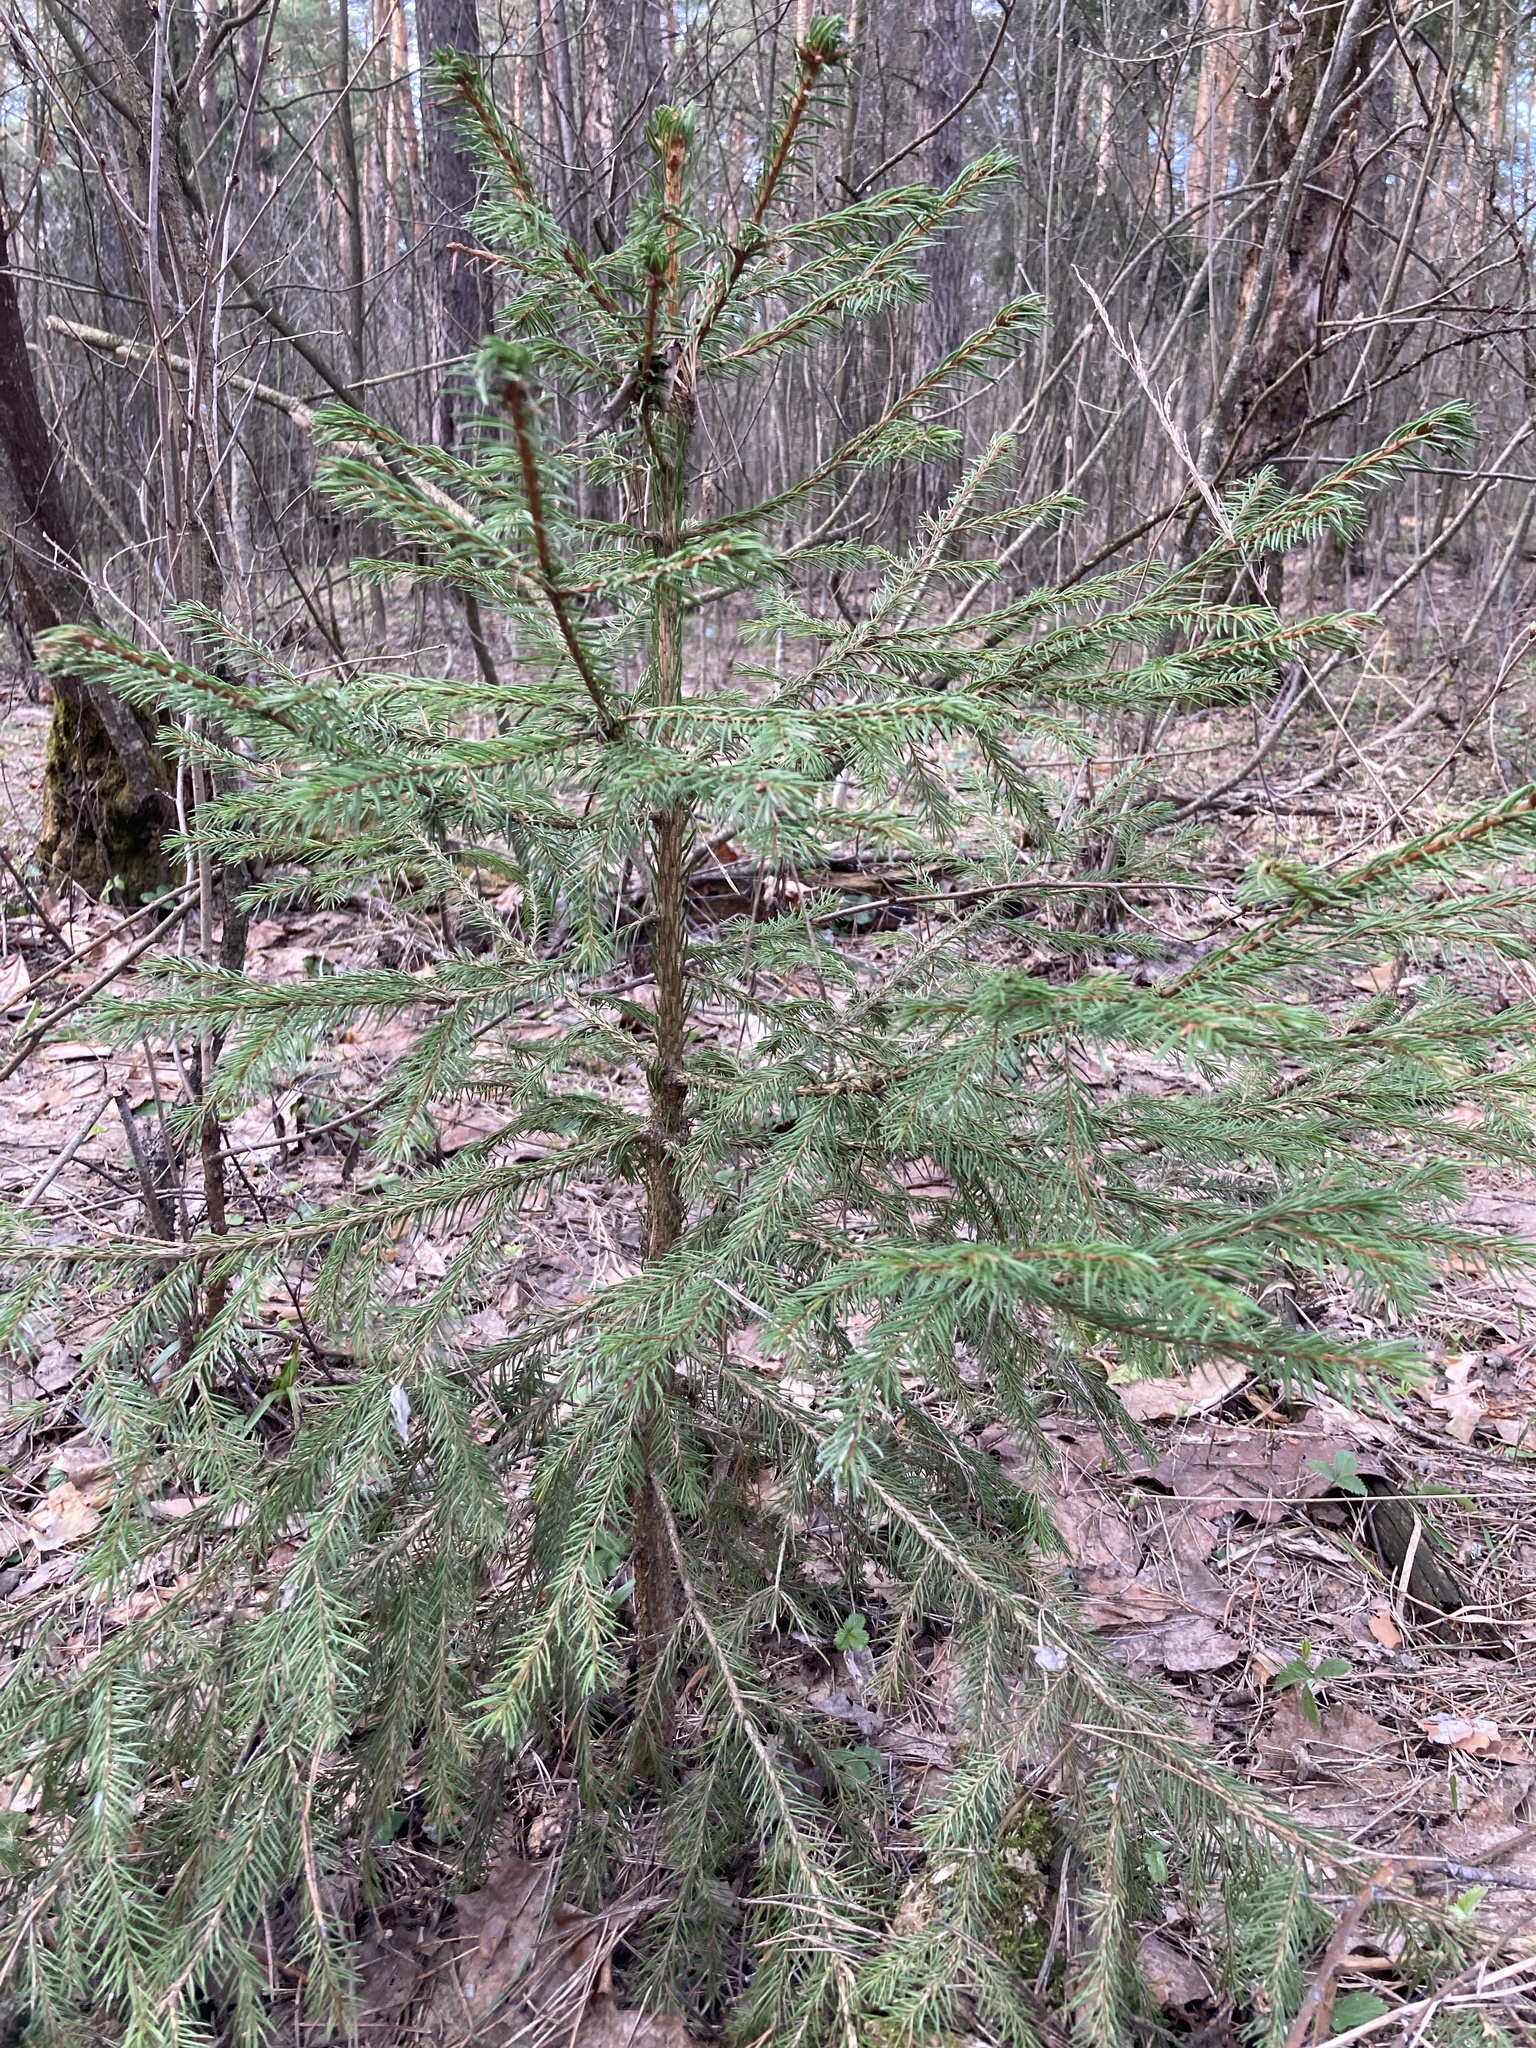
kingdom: Plantae
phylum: Tracheophyta
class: Pinopsida
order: Pinales
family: Pinaceae
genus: Picea
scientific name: Picea abies
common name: Norway spruce
